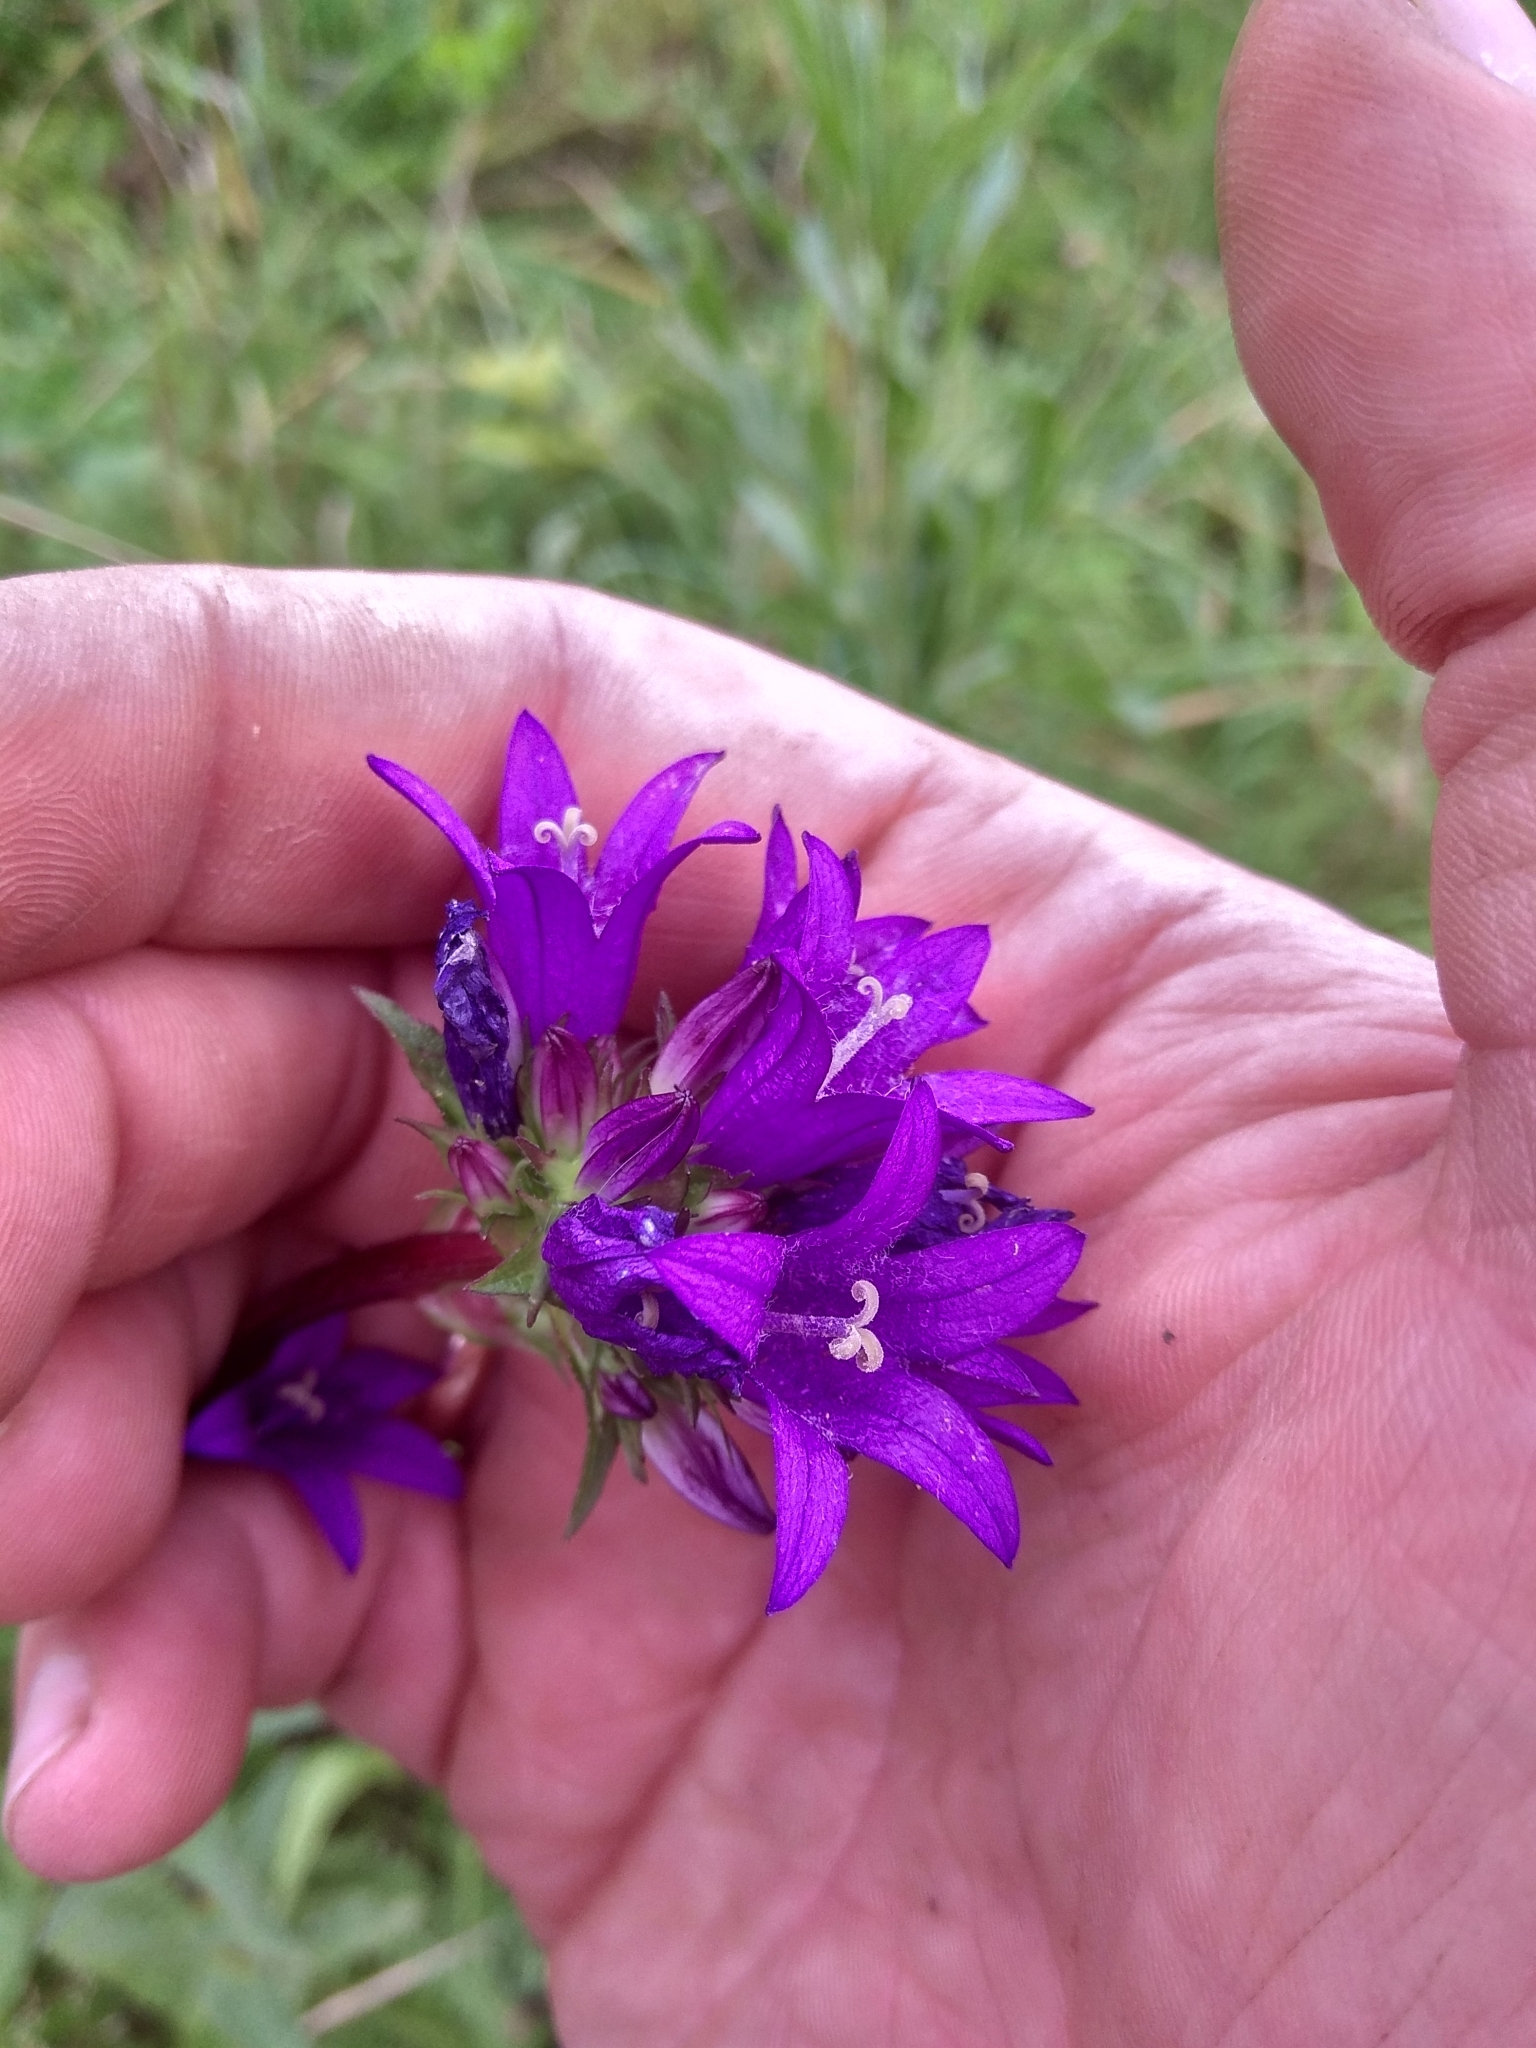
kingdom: Plantae
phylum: Tracheophyta
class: Magnoliopsida
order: Asterales
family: Campanulaceae
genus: Campanula
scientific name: Campanula glomerata
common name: Clustered bellflower
